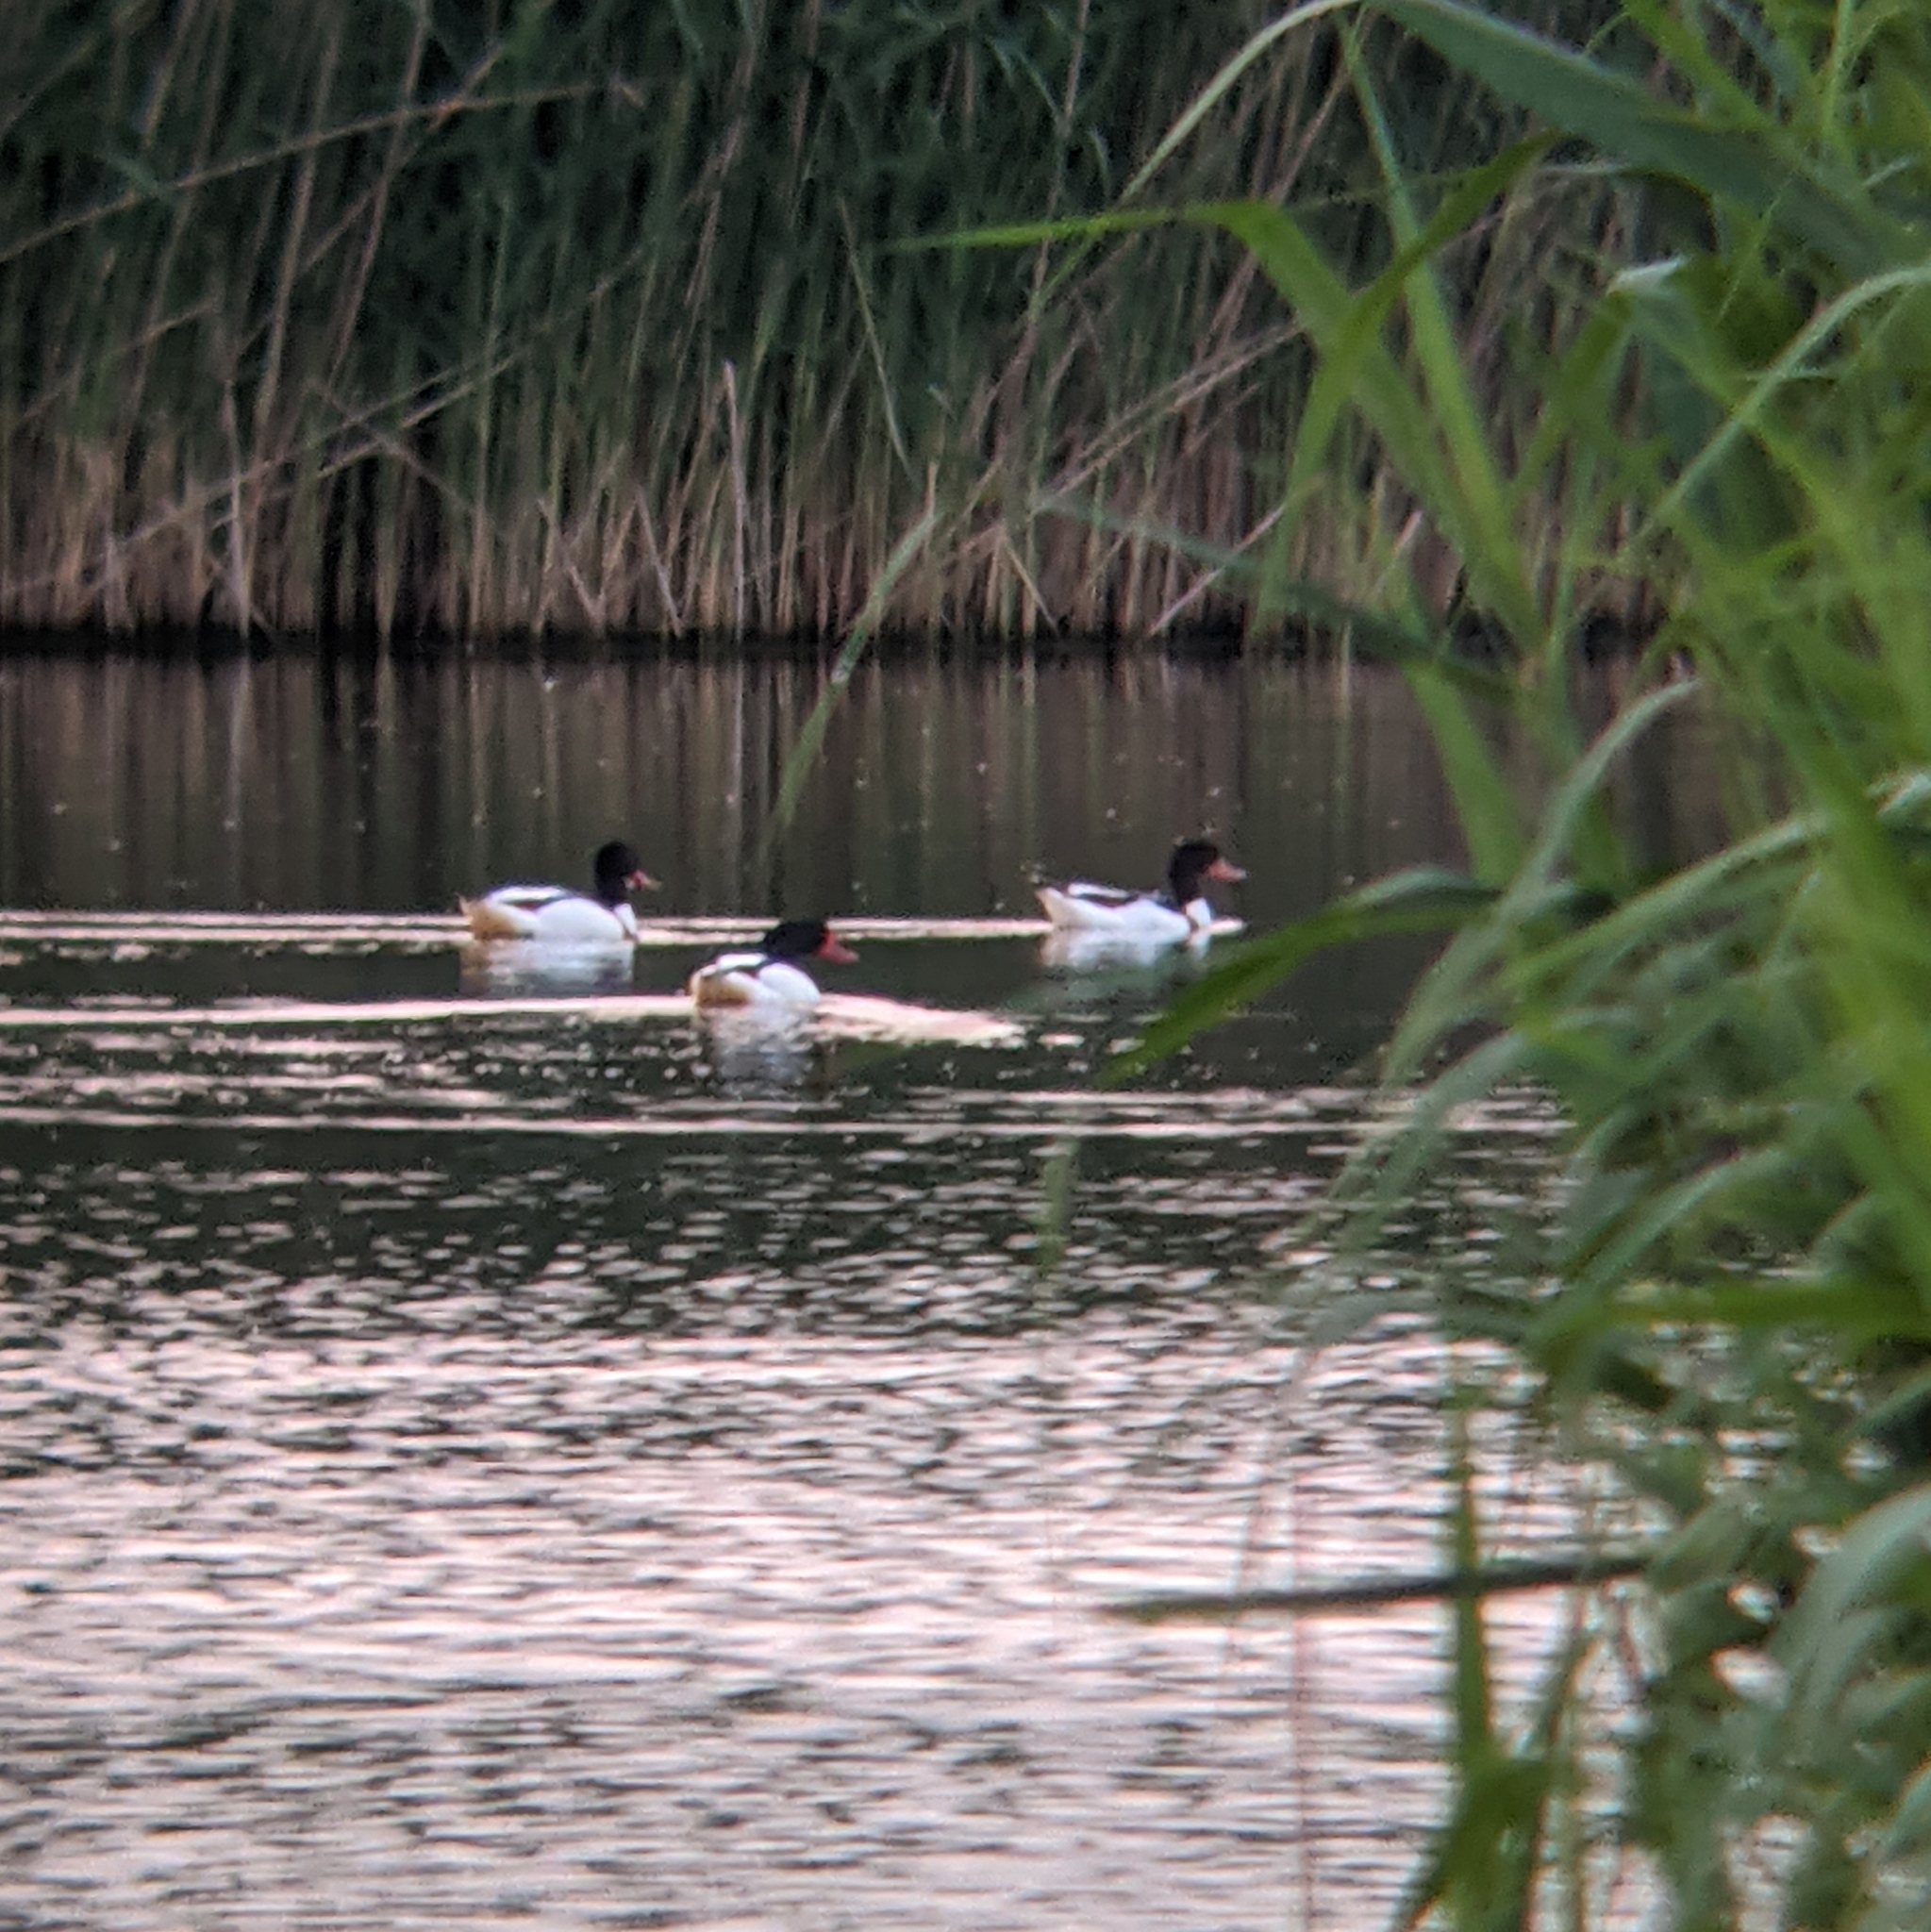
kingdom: Animalia
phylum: Chordata
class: Aves
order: Anseriformes
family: Anatidae
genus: Tadorna
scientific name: Tadorna tadorna
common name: Common shelduck
